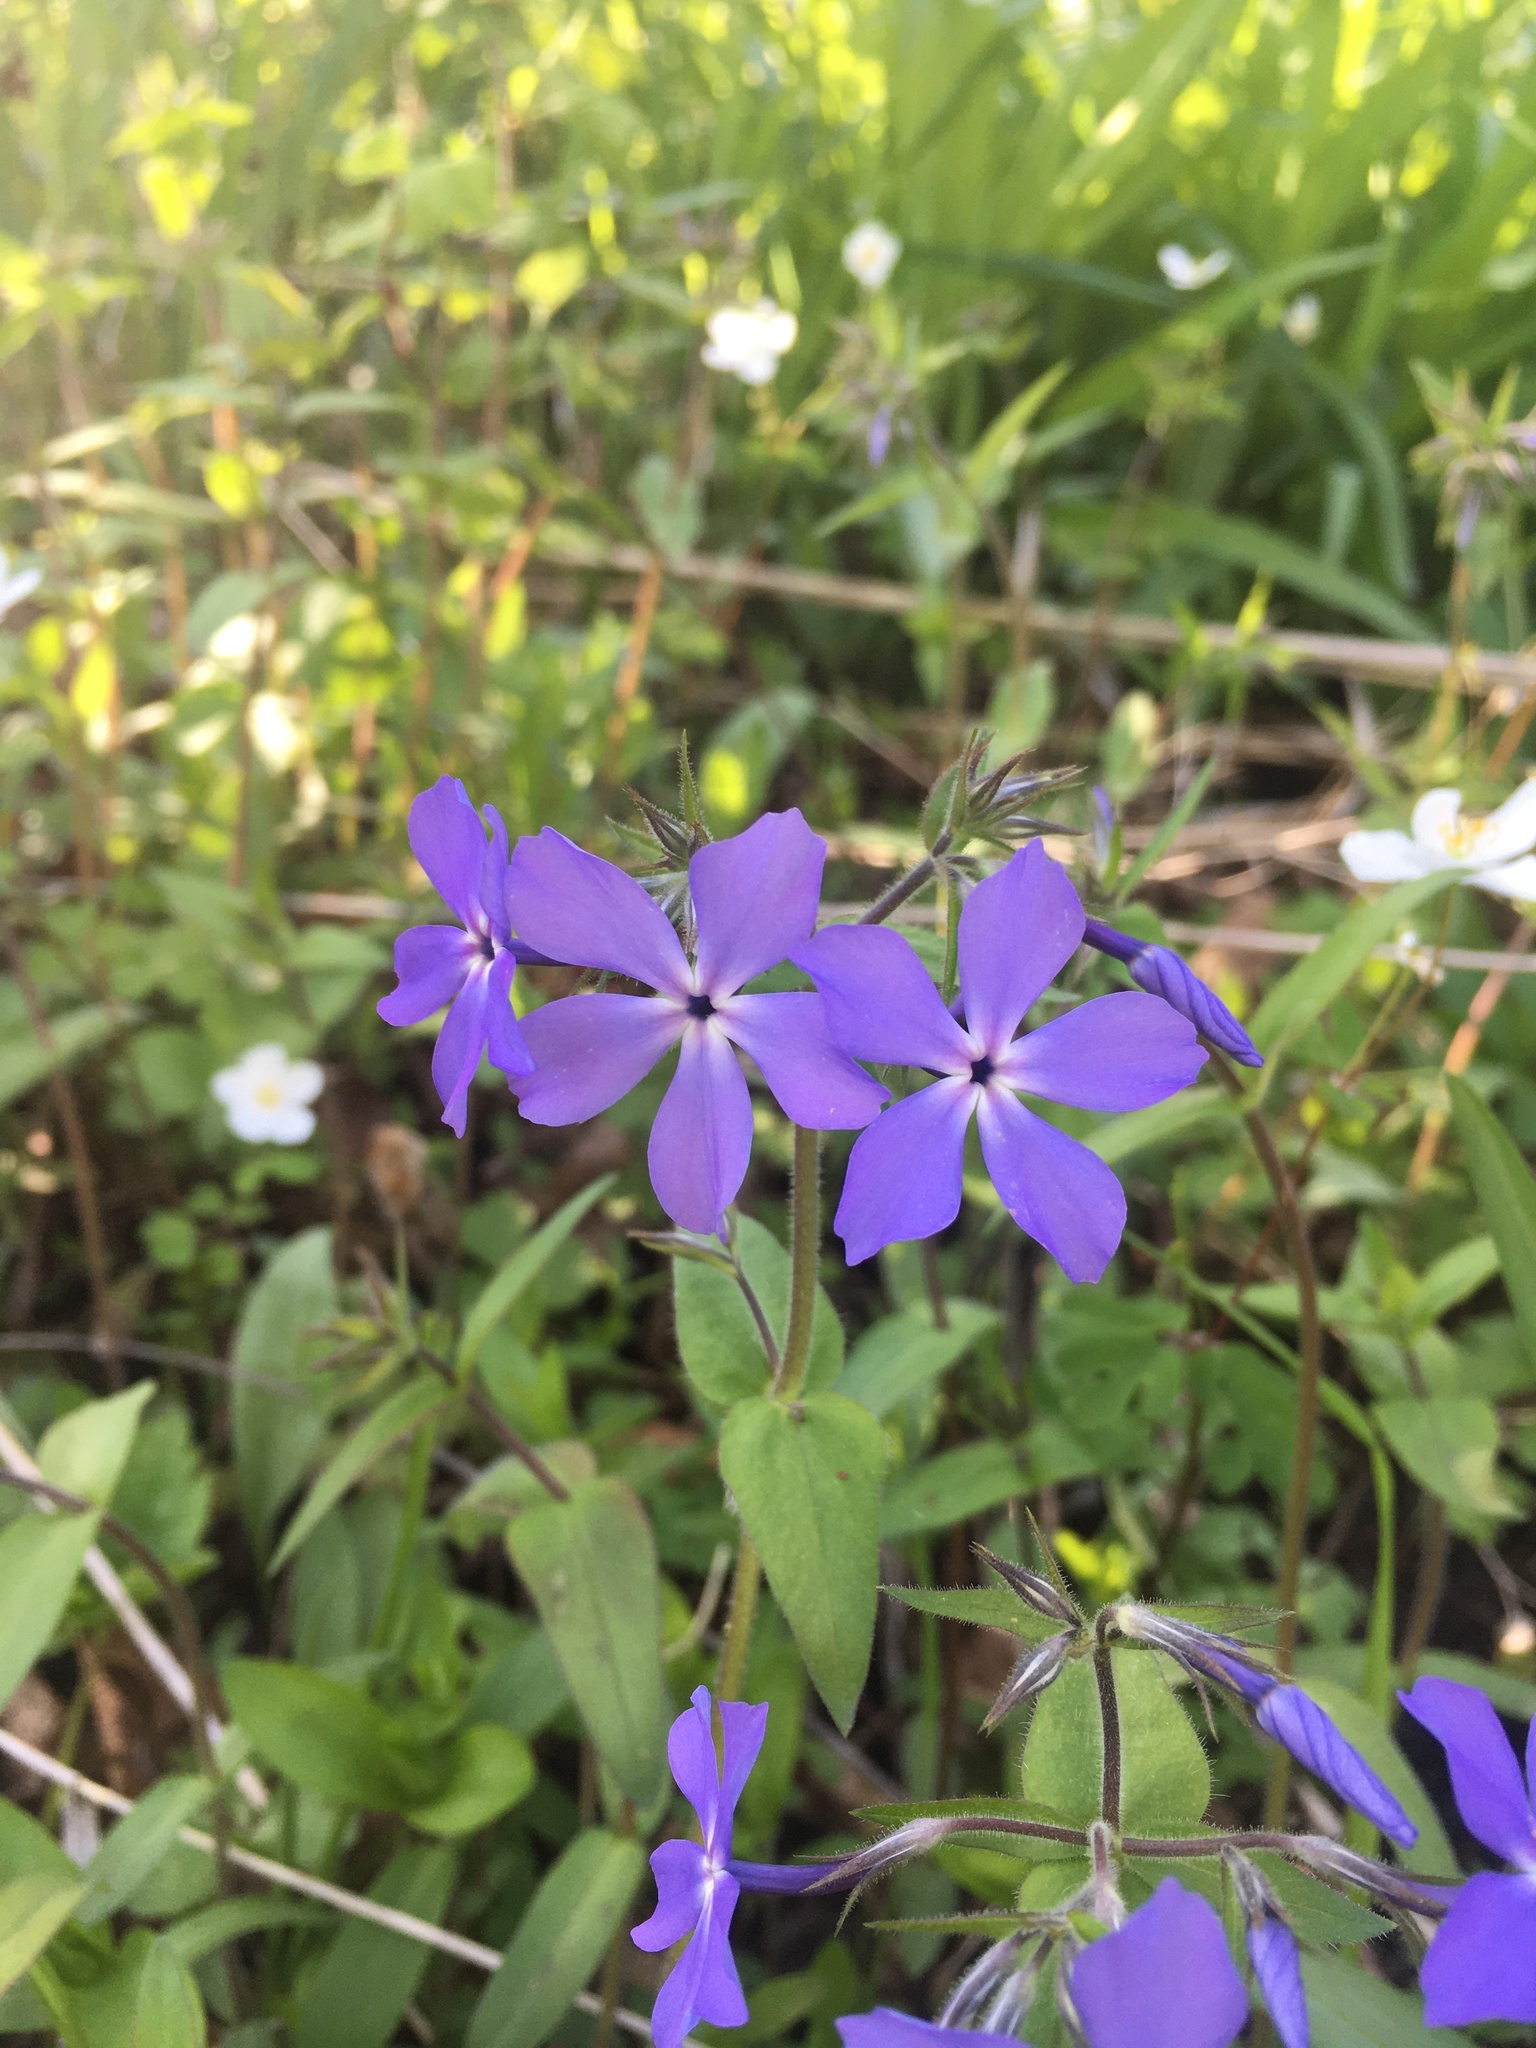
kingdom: Plantae
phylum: Tracheophyta
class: Magnoliopsida
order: Ericales
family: Polemoniaceae
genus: Phlox
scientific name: Phlox divaricata
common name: Blue phlox
